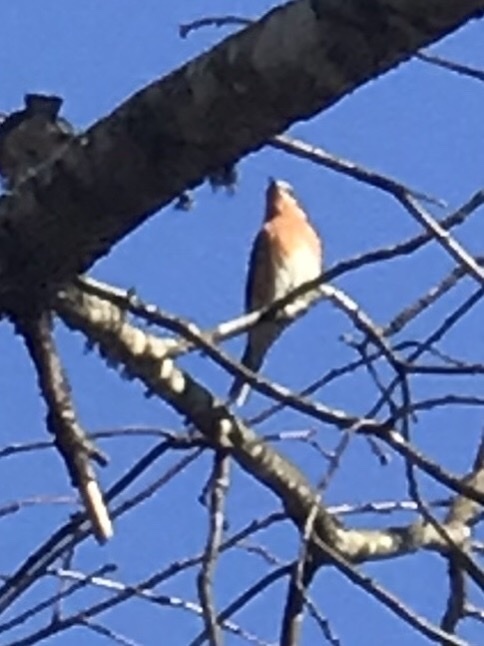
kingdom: Animalia
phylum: Chordata
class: Aves
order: Passeriformes
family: Turdidae
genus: Sialia
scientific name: Sialia sialis
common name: Eastern bluebird
